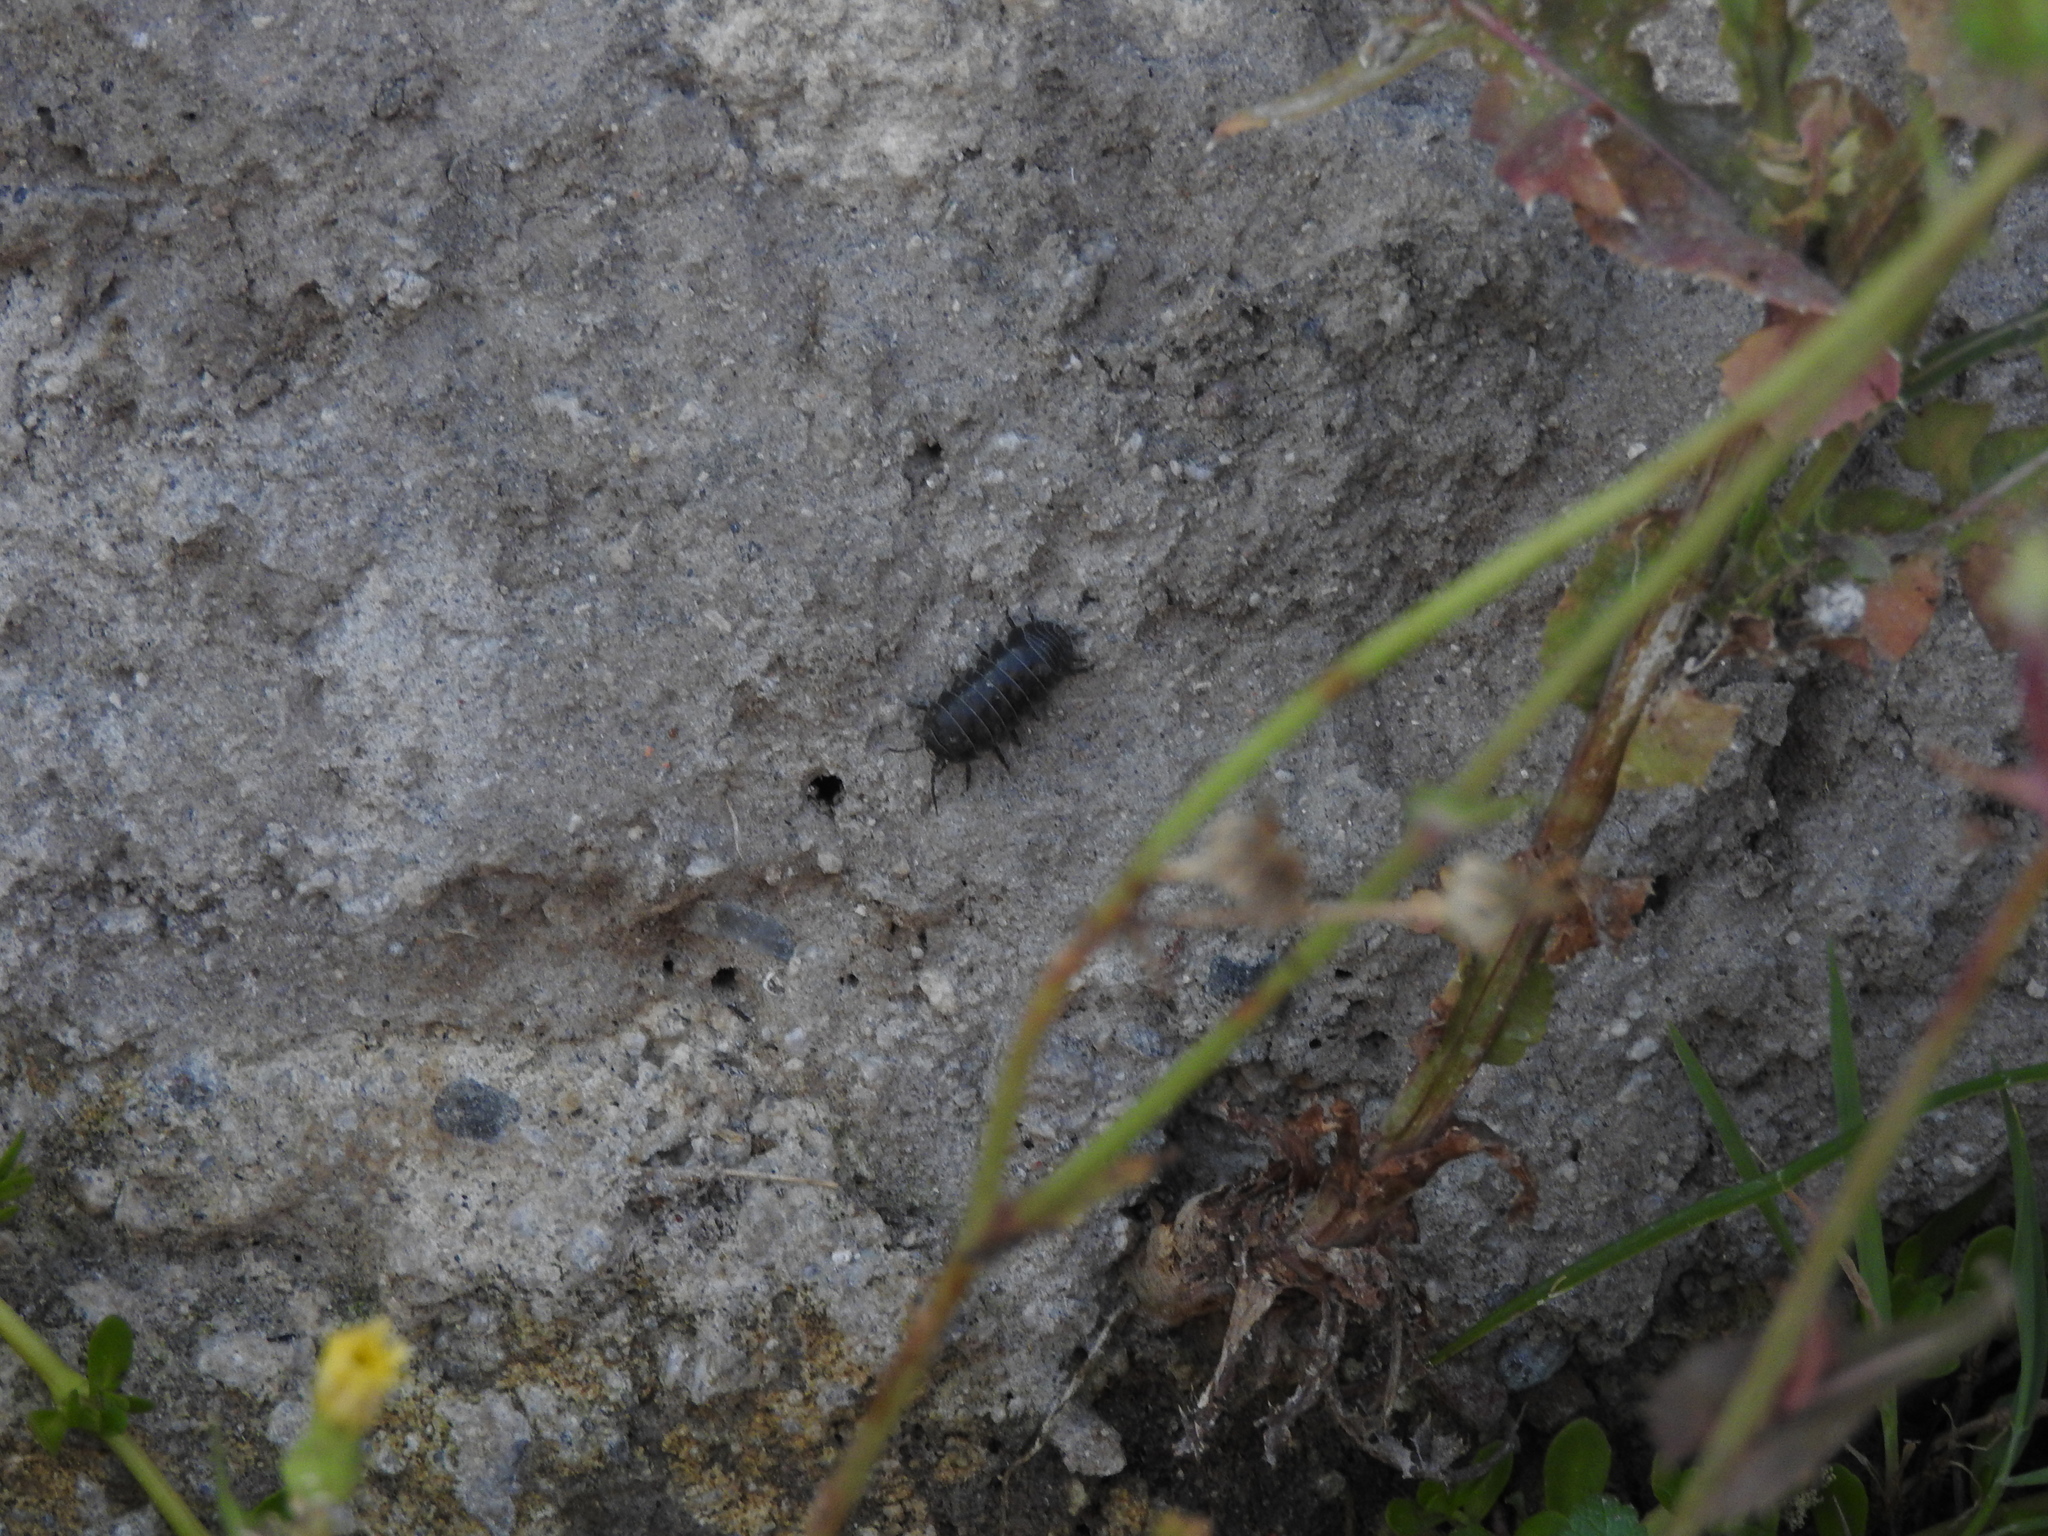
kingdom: Animalia
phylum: Arthropoda
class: Malacostraca
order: Isopoda
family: Armadillidiidae
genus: Armadillidium
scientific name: Armadillidium vulgare
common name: Common pill woodlouse
